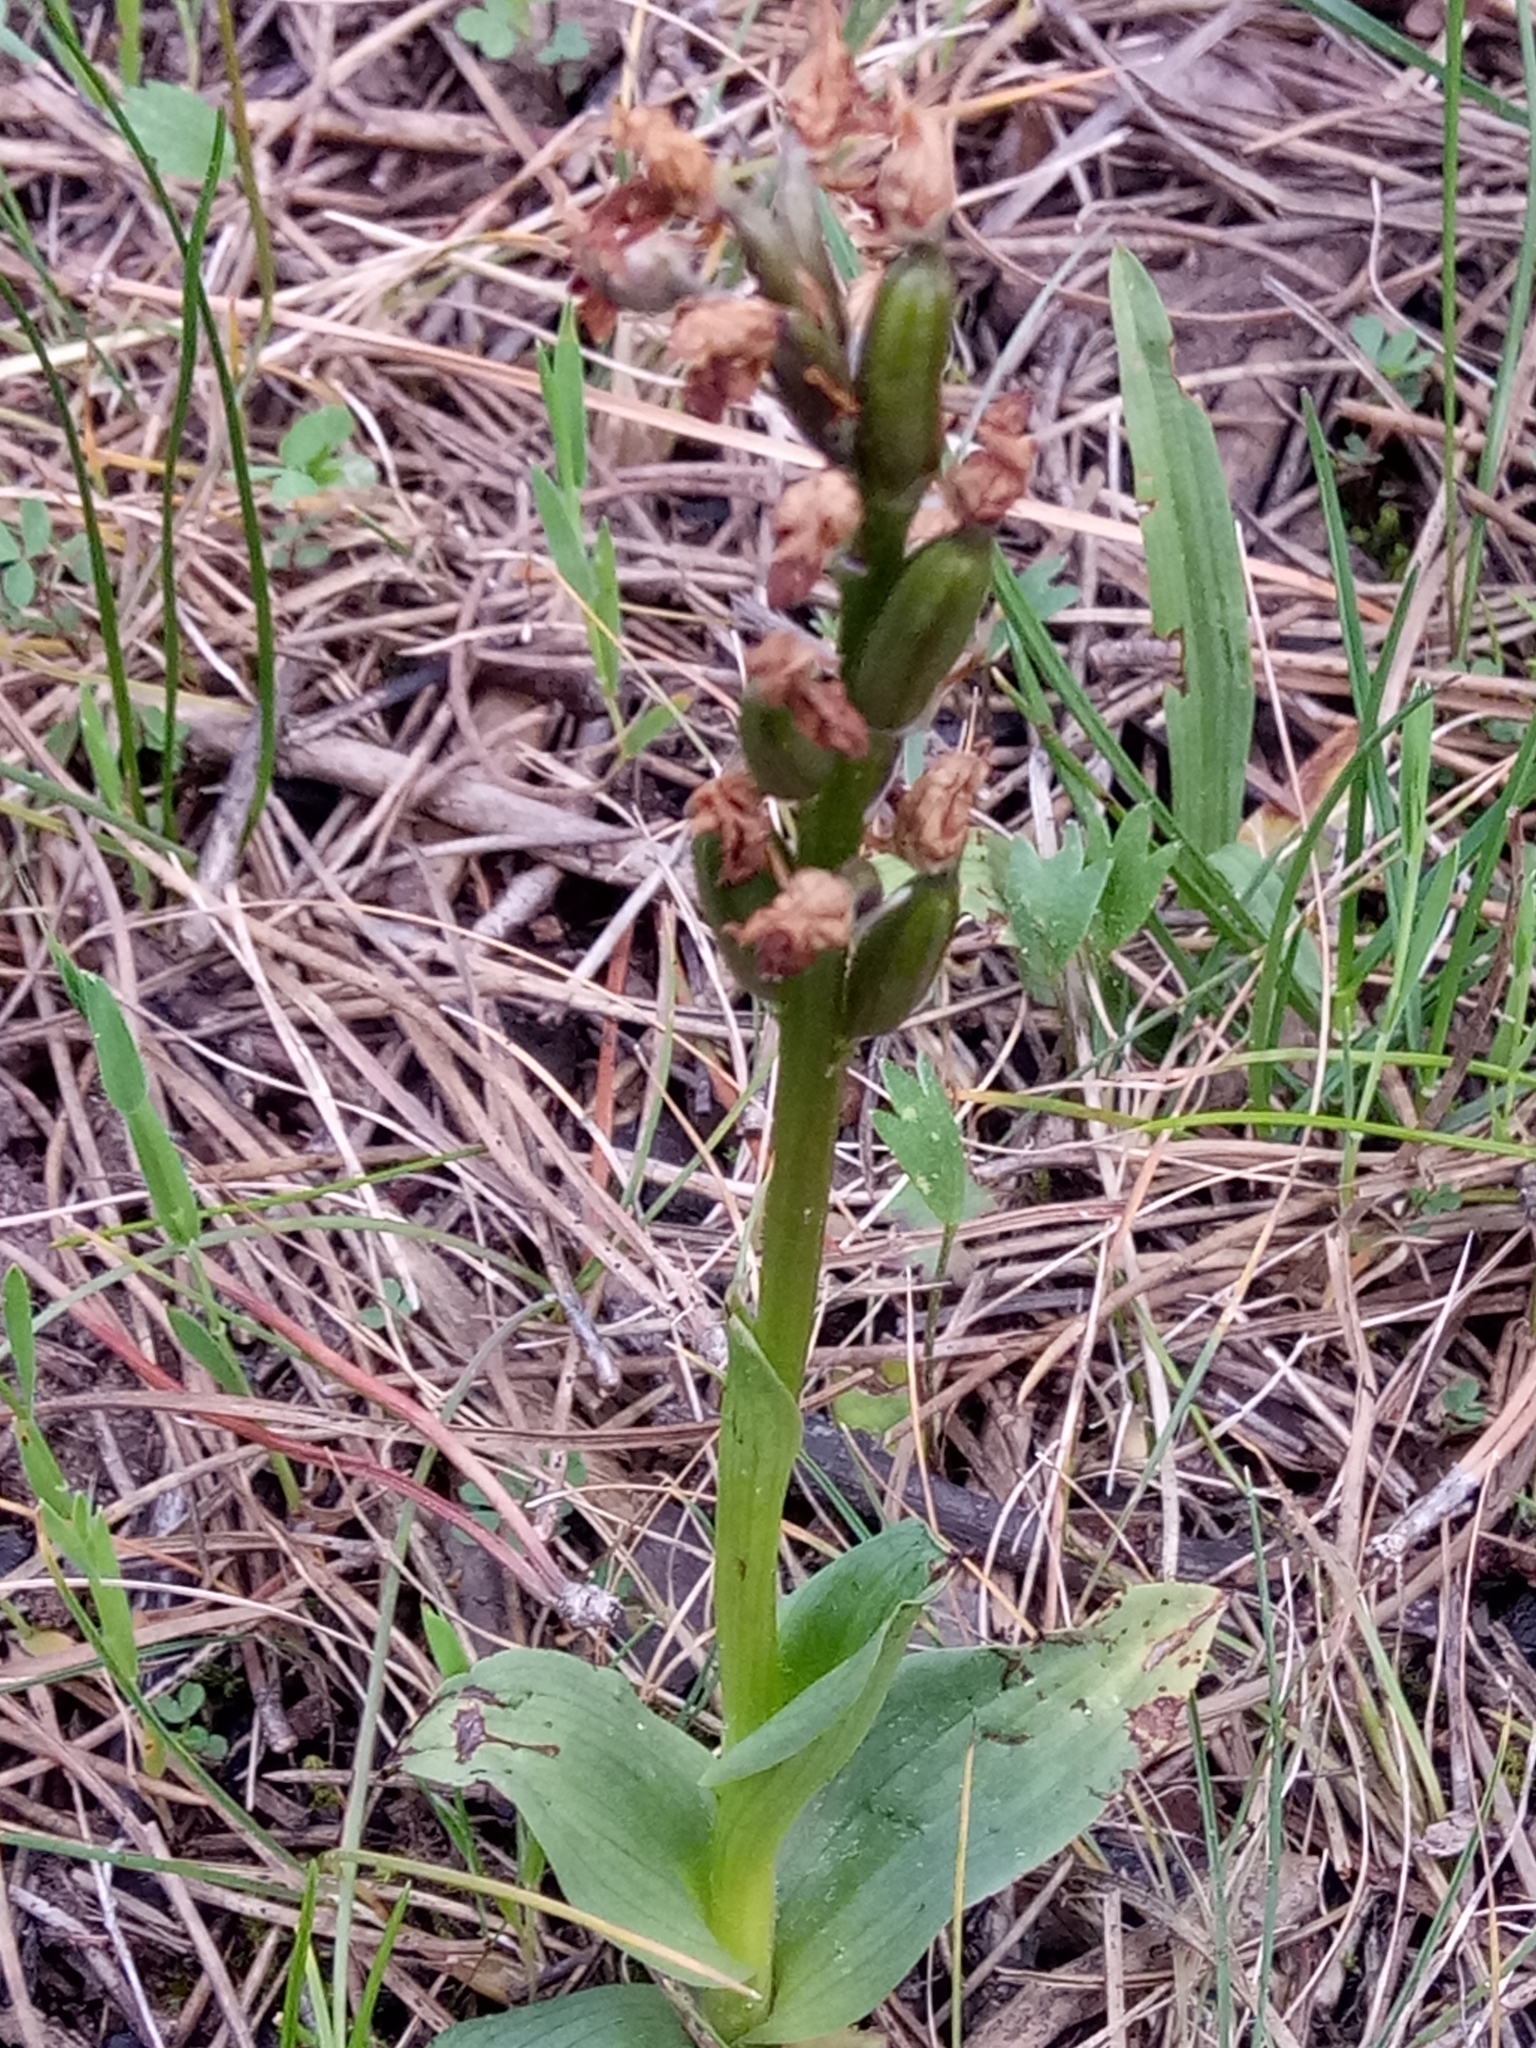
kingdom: Plantae
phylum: Tracheophyta
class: Liliopsida
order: Asparagales
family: Orchidaceae
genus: Neotinea
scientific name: Neotinea lactea
